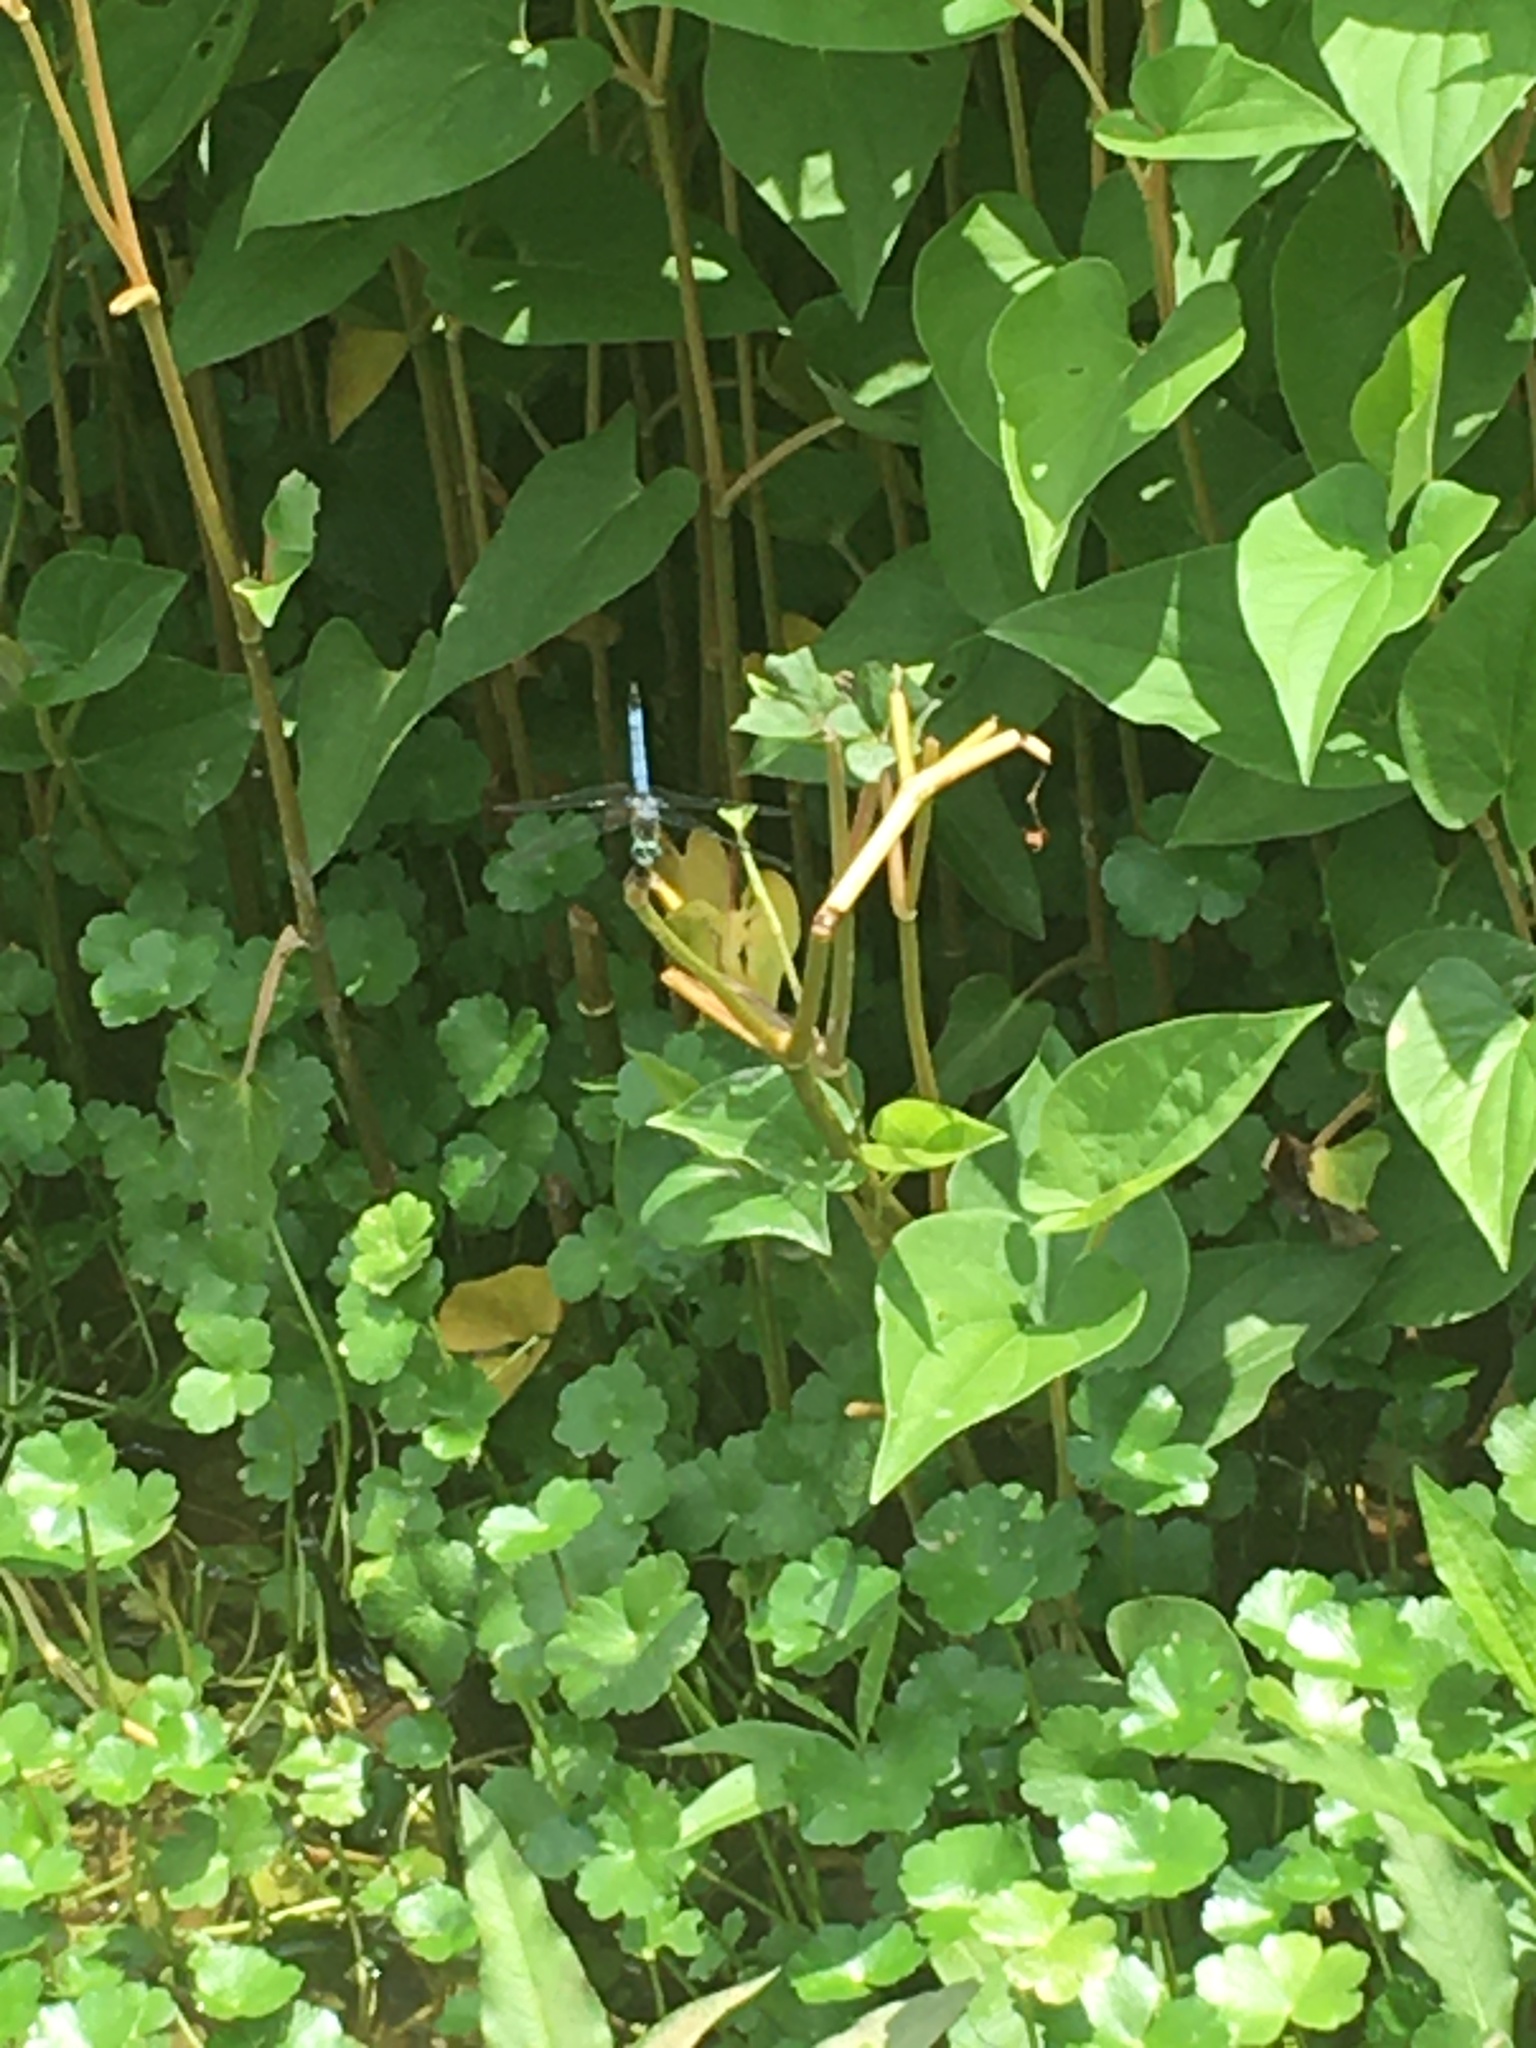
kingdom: Animalia
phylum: Arthropoda
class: Insecta
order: Odonata
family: Libellulidae
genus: Pachydiplax
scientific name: Pachydiplax longipennis
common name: Blue dasher
